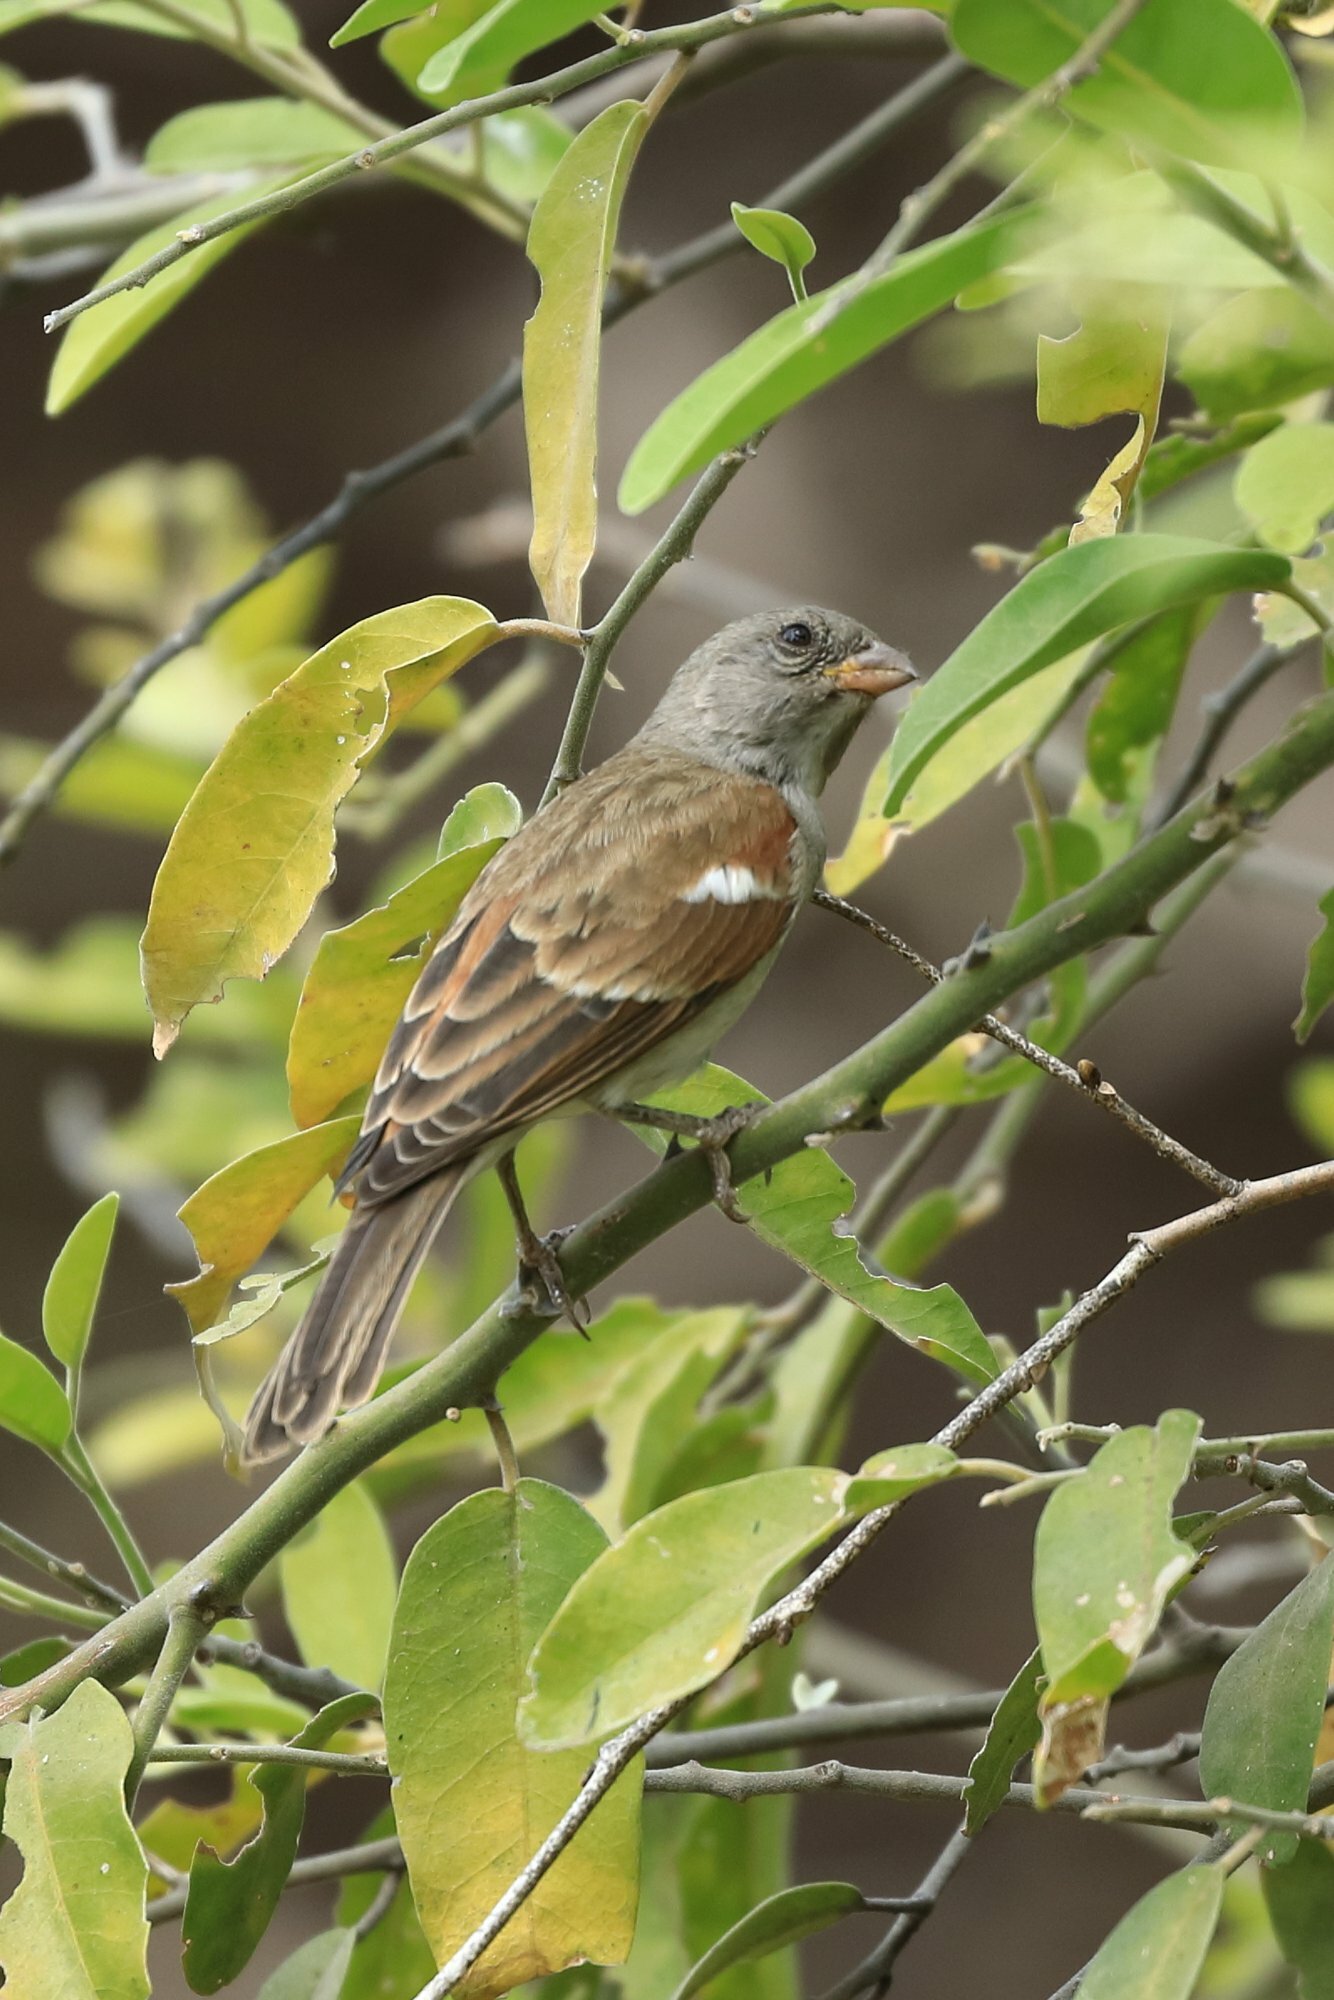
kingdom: Animalia
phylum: Chordata
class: Aves
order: Passeriformes
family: Passeridae
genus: Passer
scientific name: Passer diffusus
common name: Southern grey-headed sparrow
